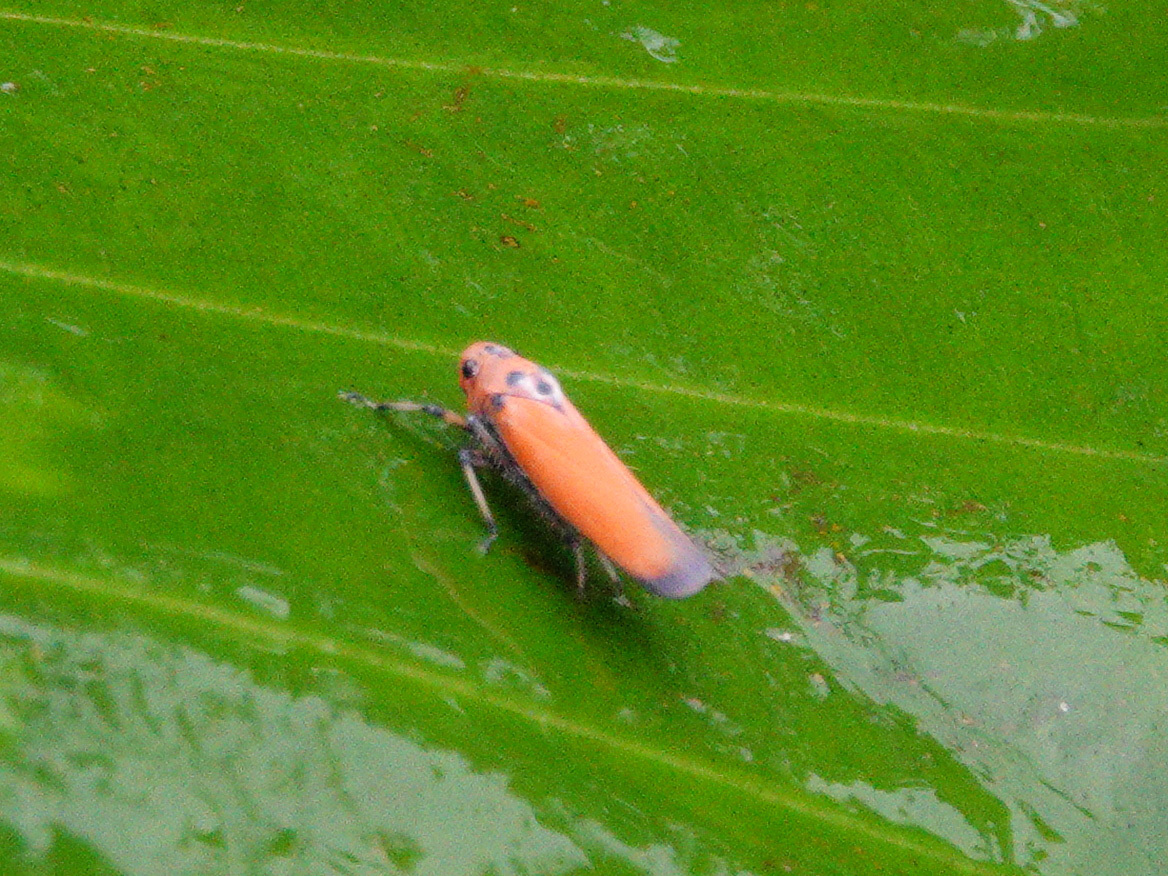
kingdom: Animalia
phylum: Arthropoda
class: Insecta
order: Hemiptera
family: Cicadellidae
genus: Bothrogonia
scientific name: Bothrogonia addita
